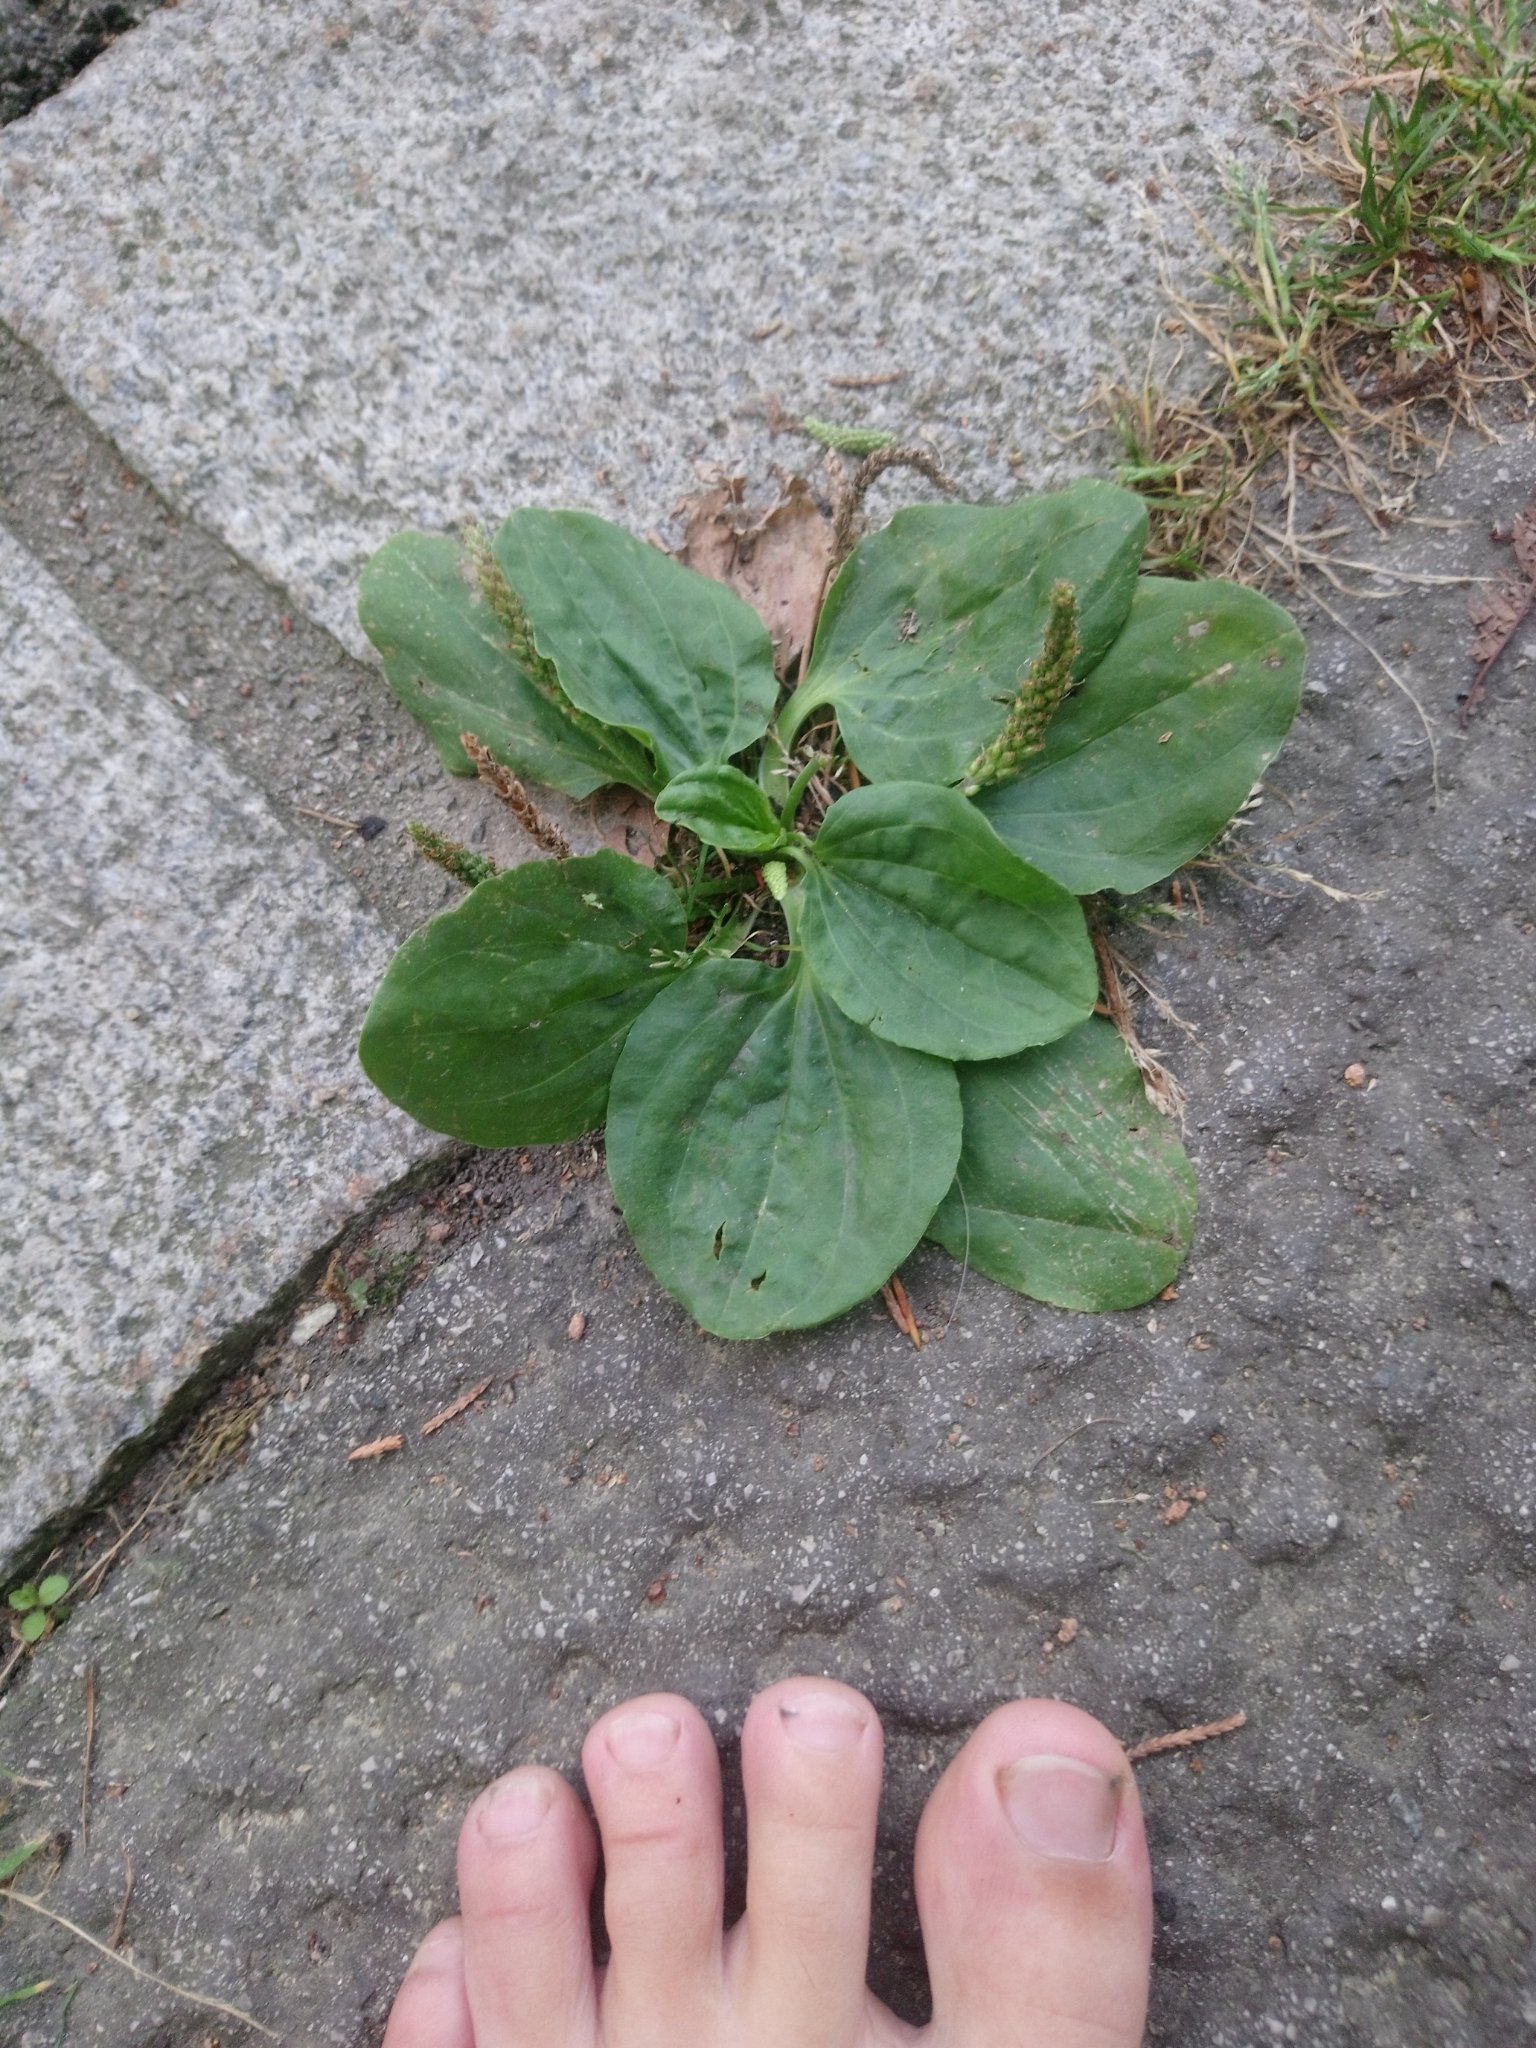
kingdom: Plantae
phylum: Tracheophyta
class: Magnoliopsida
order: Lamiales
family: Plantaginaceae
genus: Plantago
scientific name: Plantago major
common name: Common plantain
